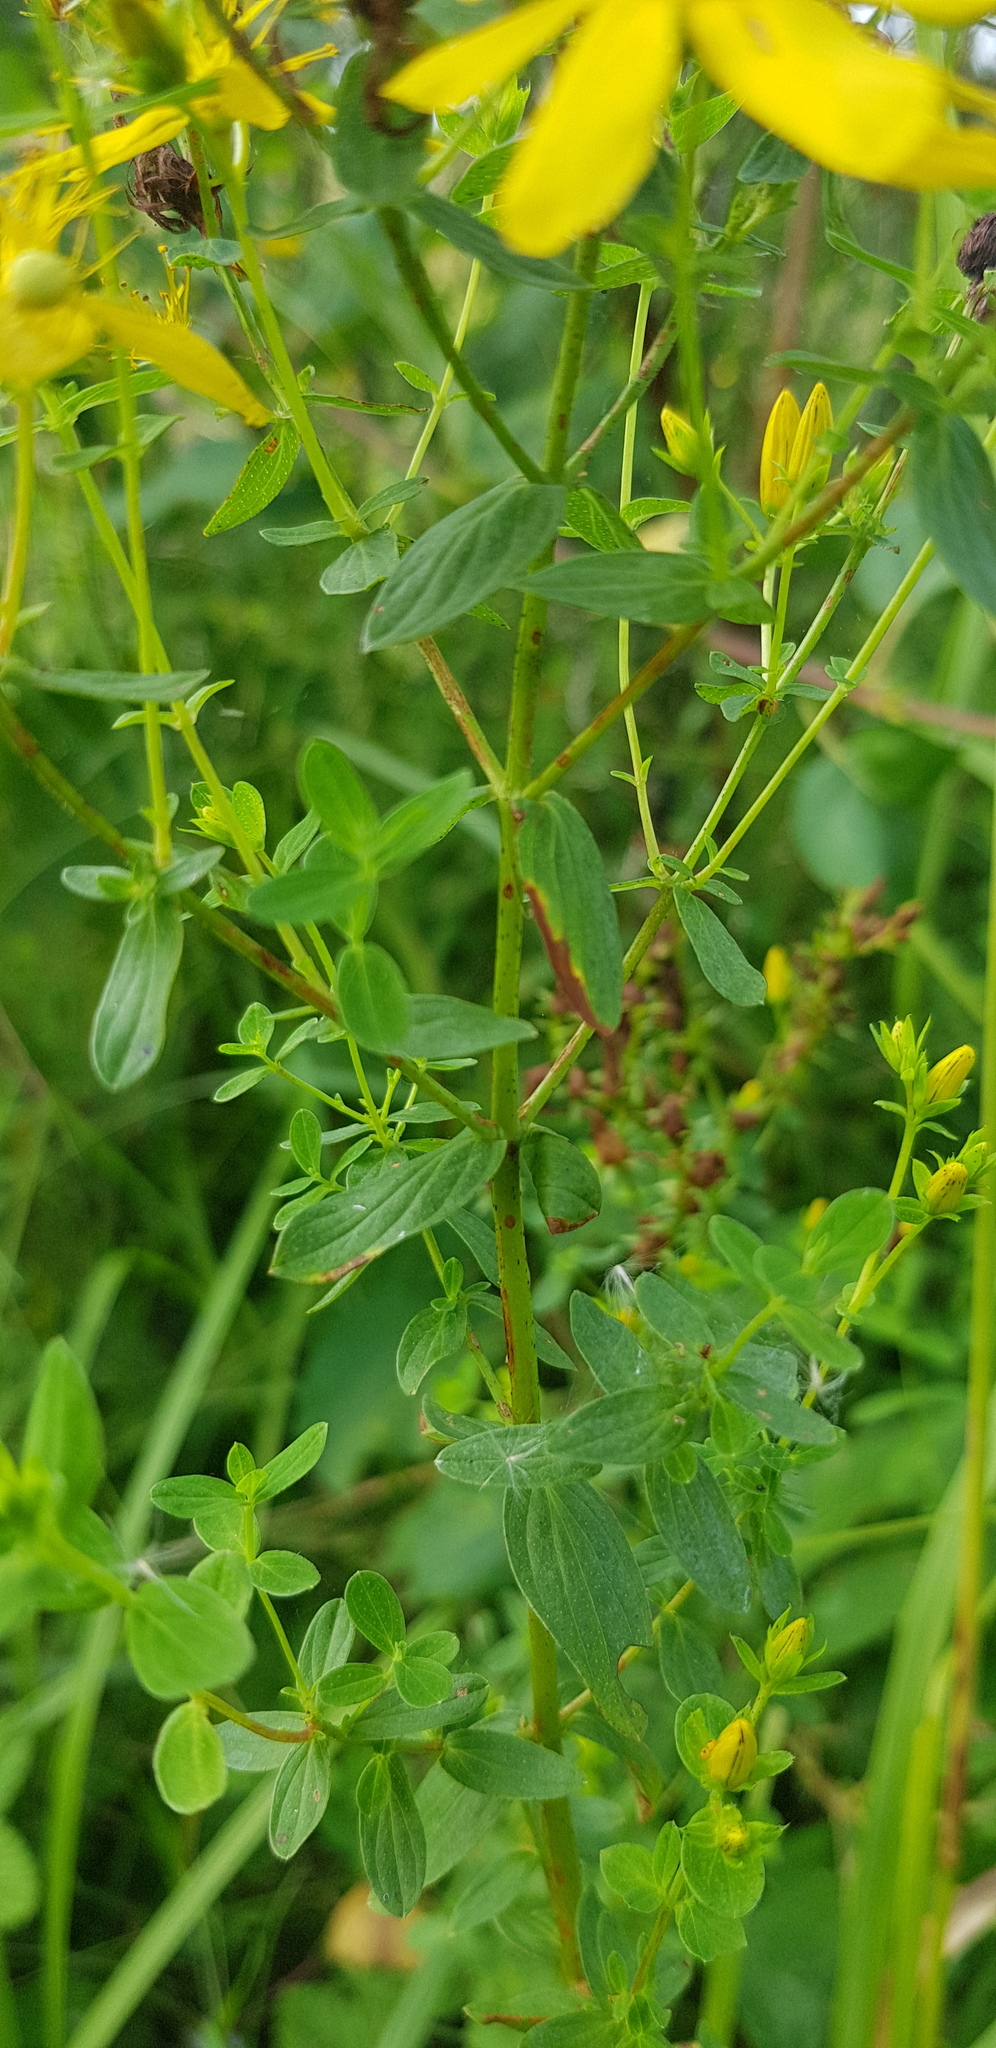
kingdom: Plantae
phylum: Tracheophyta
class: Magnoliopsida
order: Malpighiales
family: Hypericaceae
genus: Hypericum
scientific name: Hypericum perforatum
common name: Common st. johnswort
